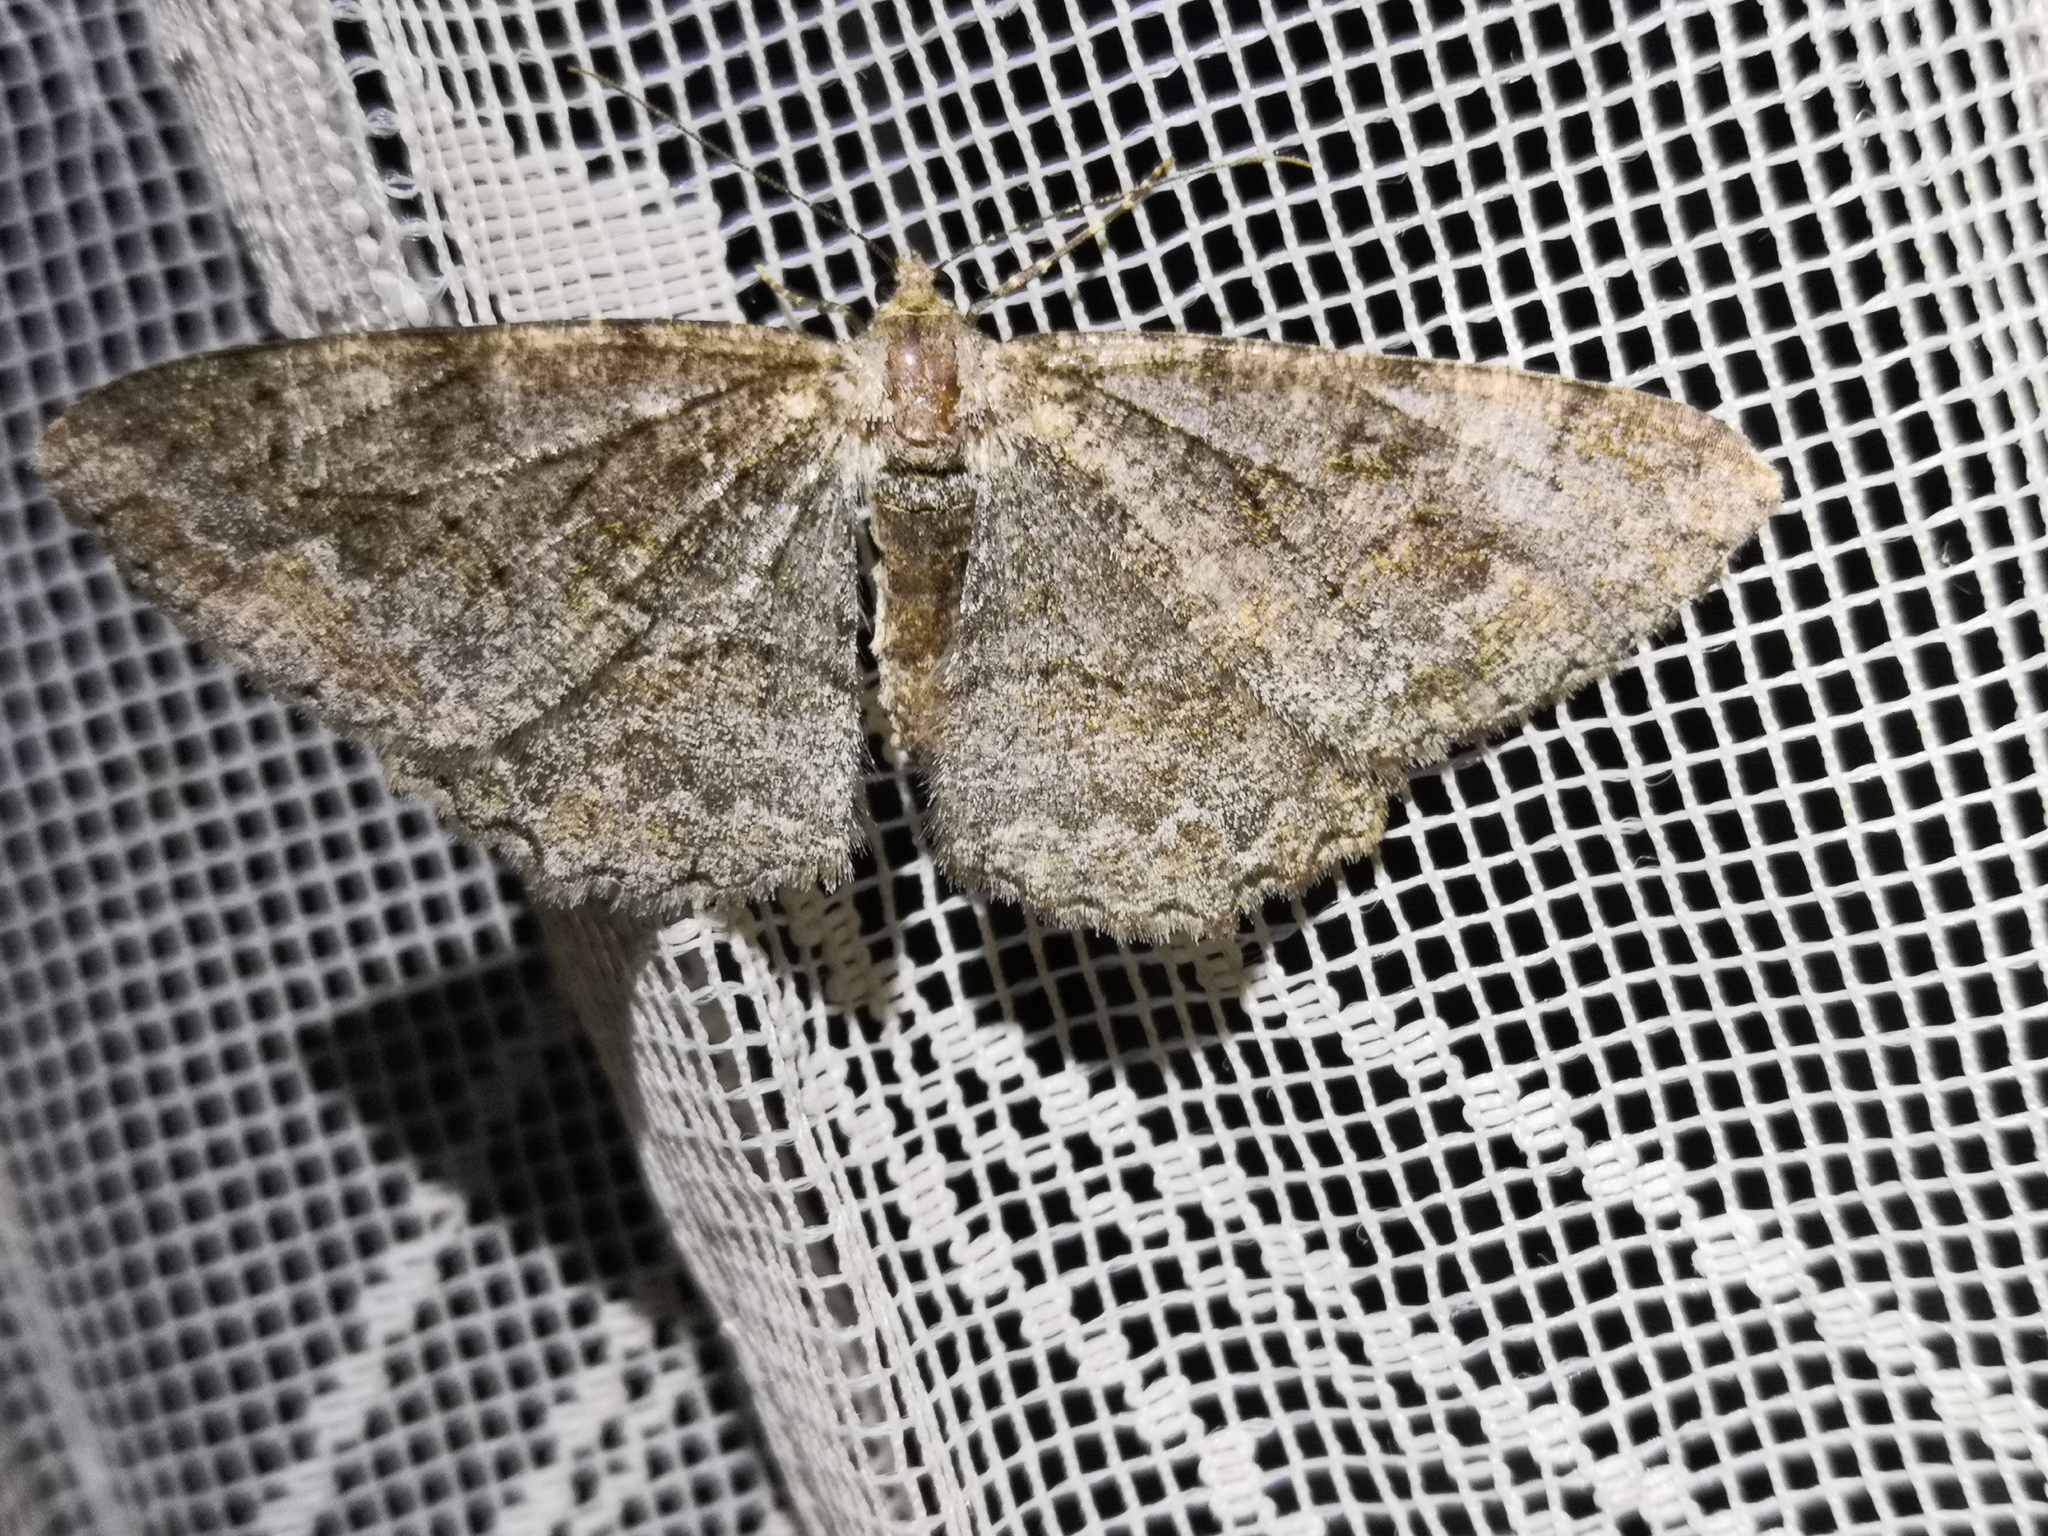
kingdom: Animalia
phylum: Arthropoda
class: Insecta
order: Lepidoptera
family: Geometridae
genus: Alcis
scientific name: Alcis repandata
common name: Mottled beauty
